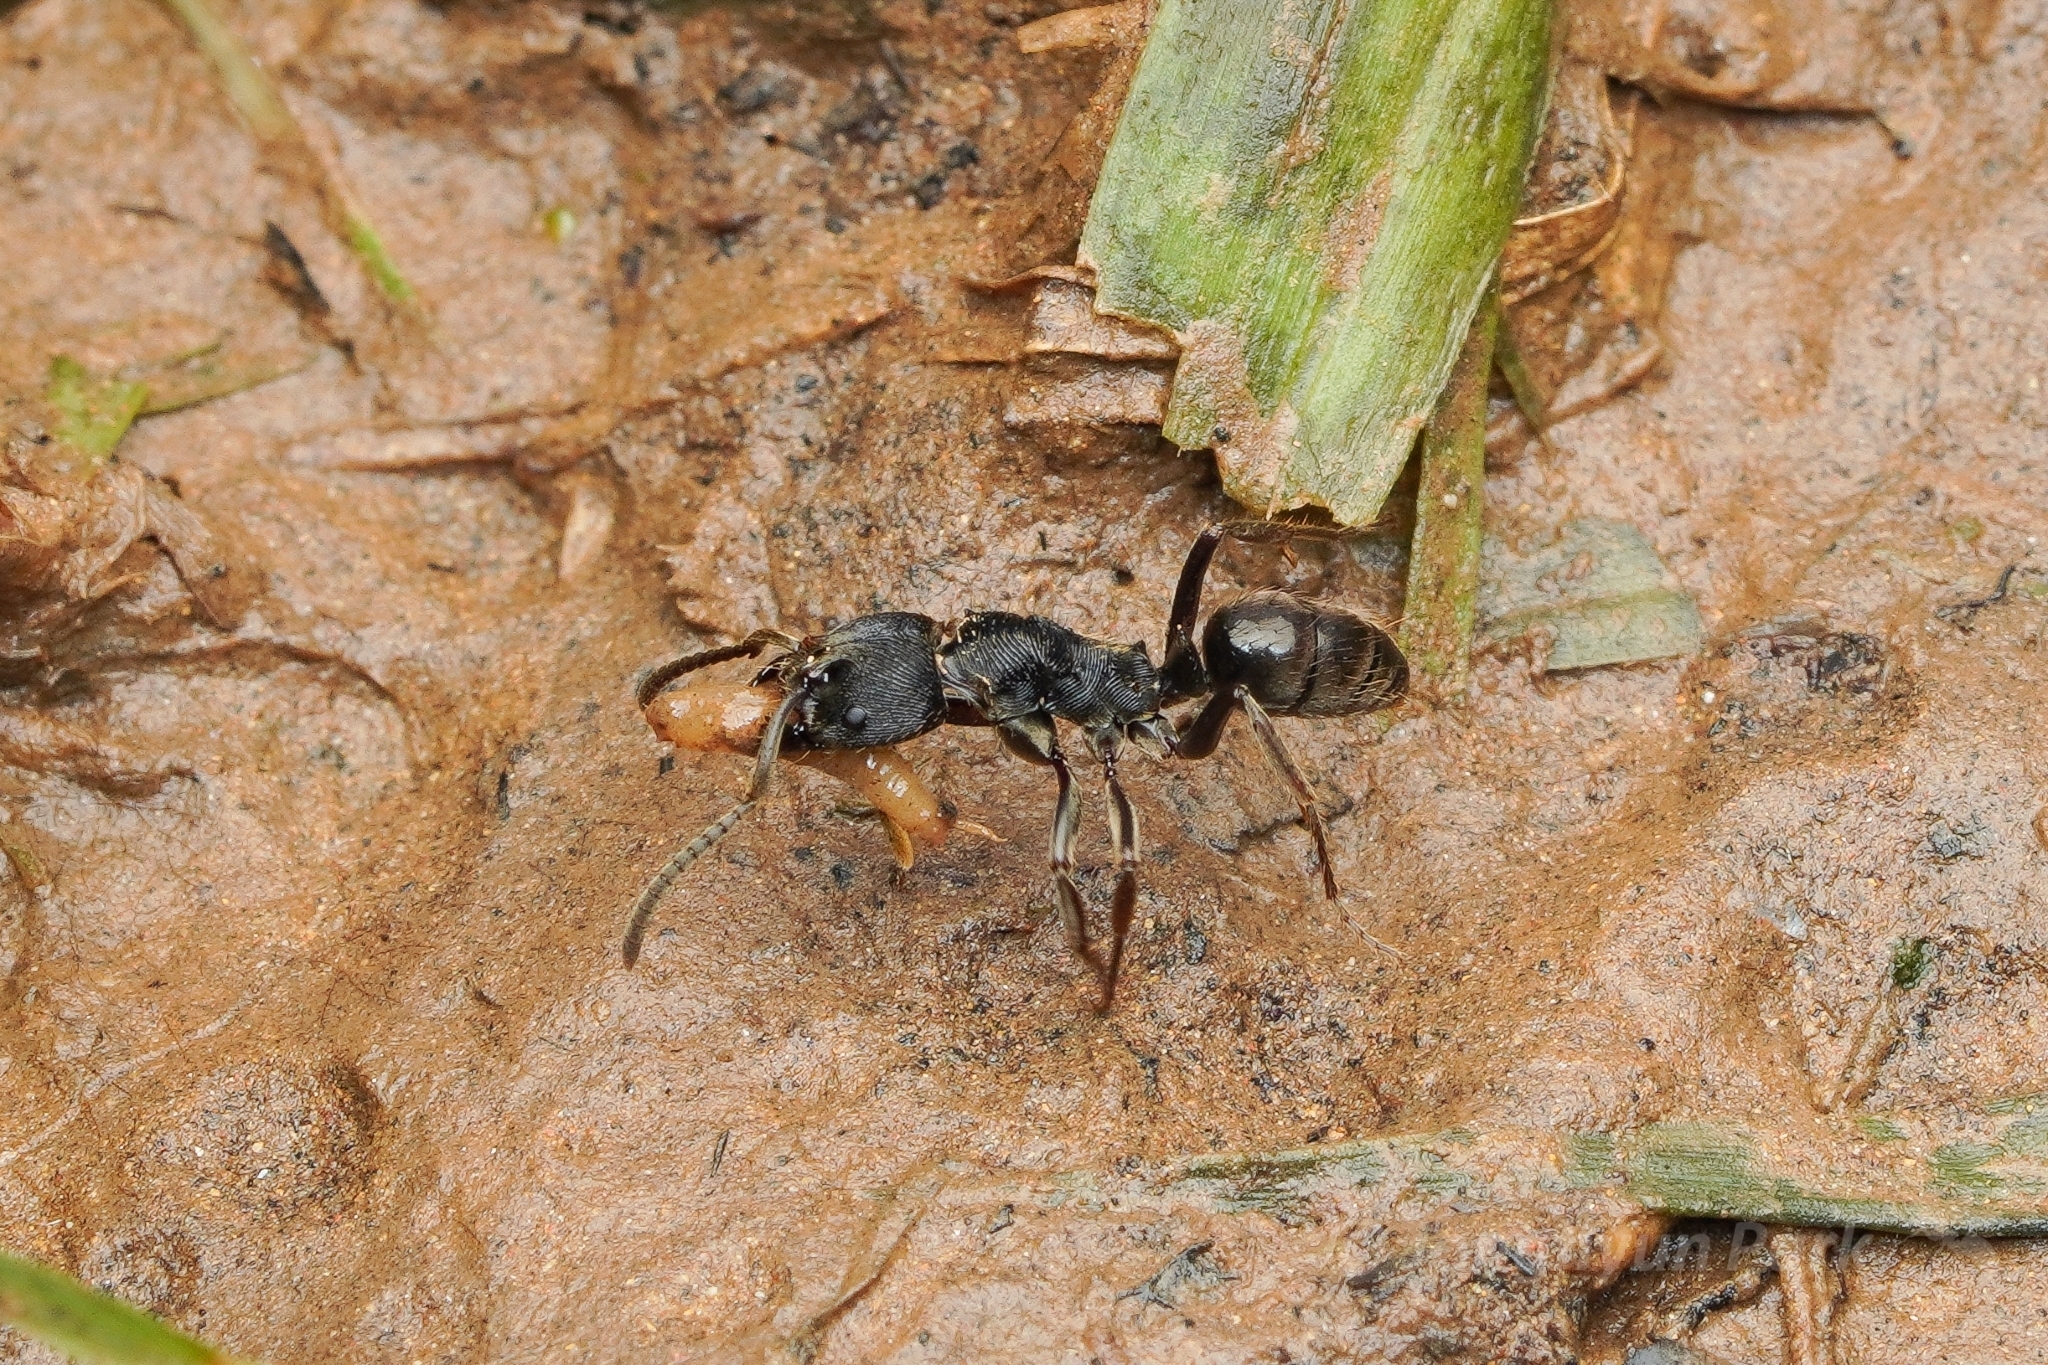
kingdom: Animalia
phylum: Arthropoda
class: Insecta
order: Hymenoptera
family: Formicidae
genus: Odontoponera
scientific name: Odontoponera denticulata
